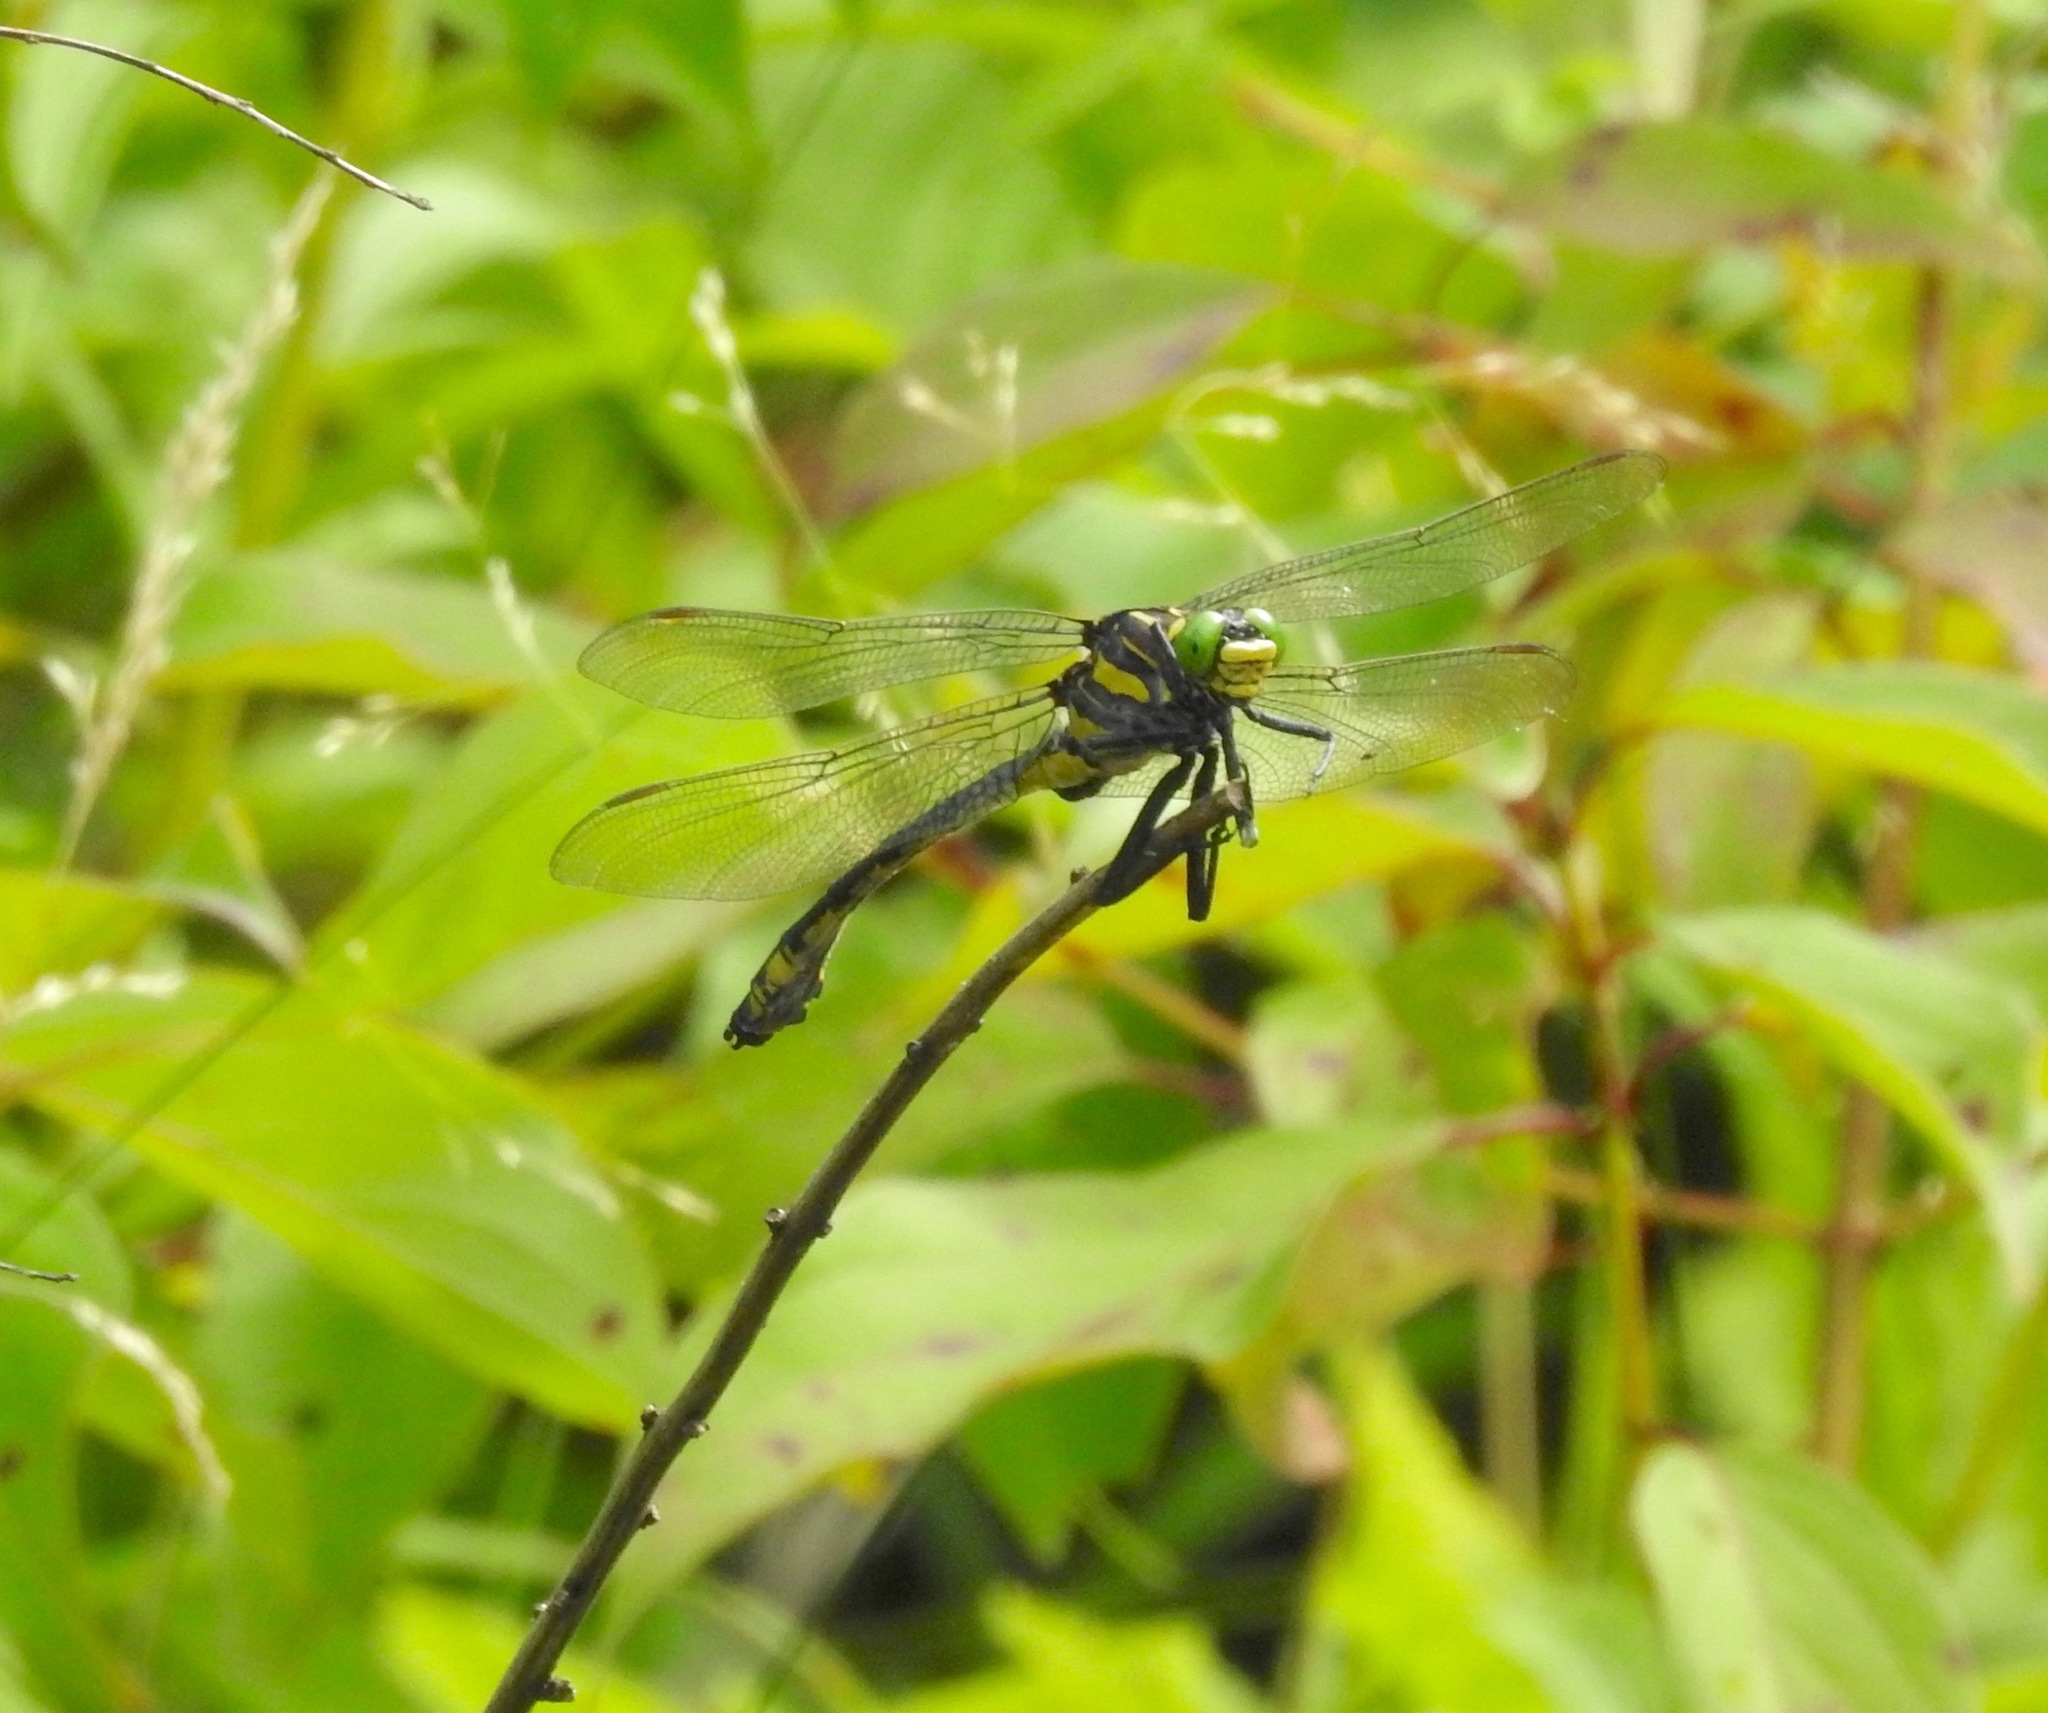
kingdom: Animalia
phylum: Arthropoda
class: Insecta
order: Odonata
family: Gomphidae
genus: Hagenius
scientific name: Hagenius brevistylus
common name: Dragonhunter
